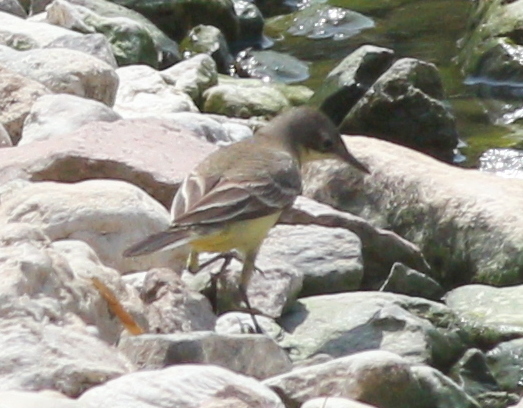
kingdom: Animalia
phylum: Chordata
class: Aves
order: Passeriformes
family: Motacillidae
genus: Motacilla
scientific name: Motacilla flava
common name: Western yellow wagtail
